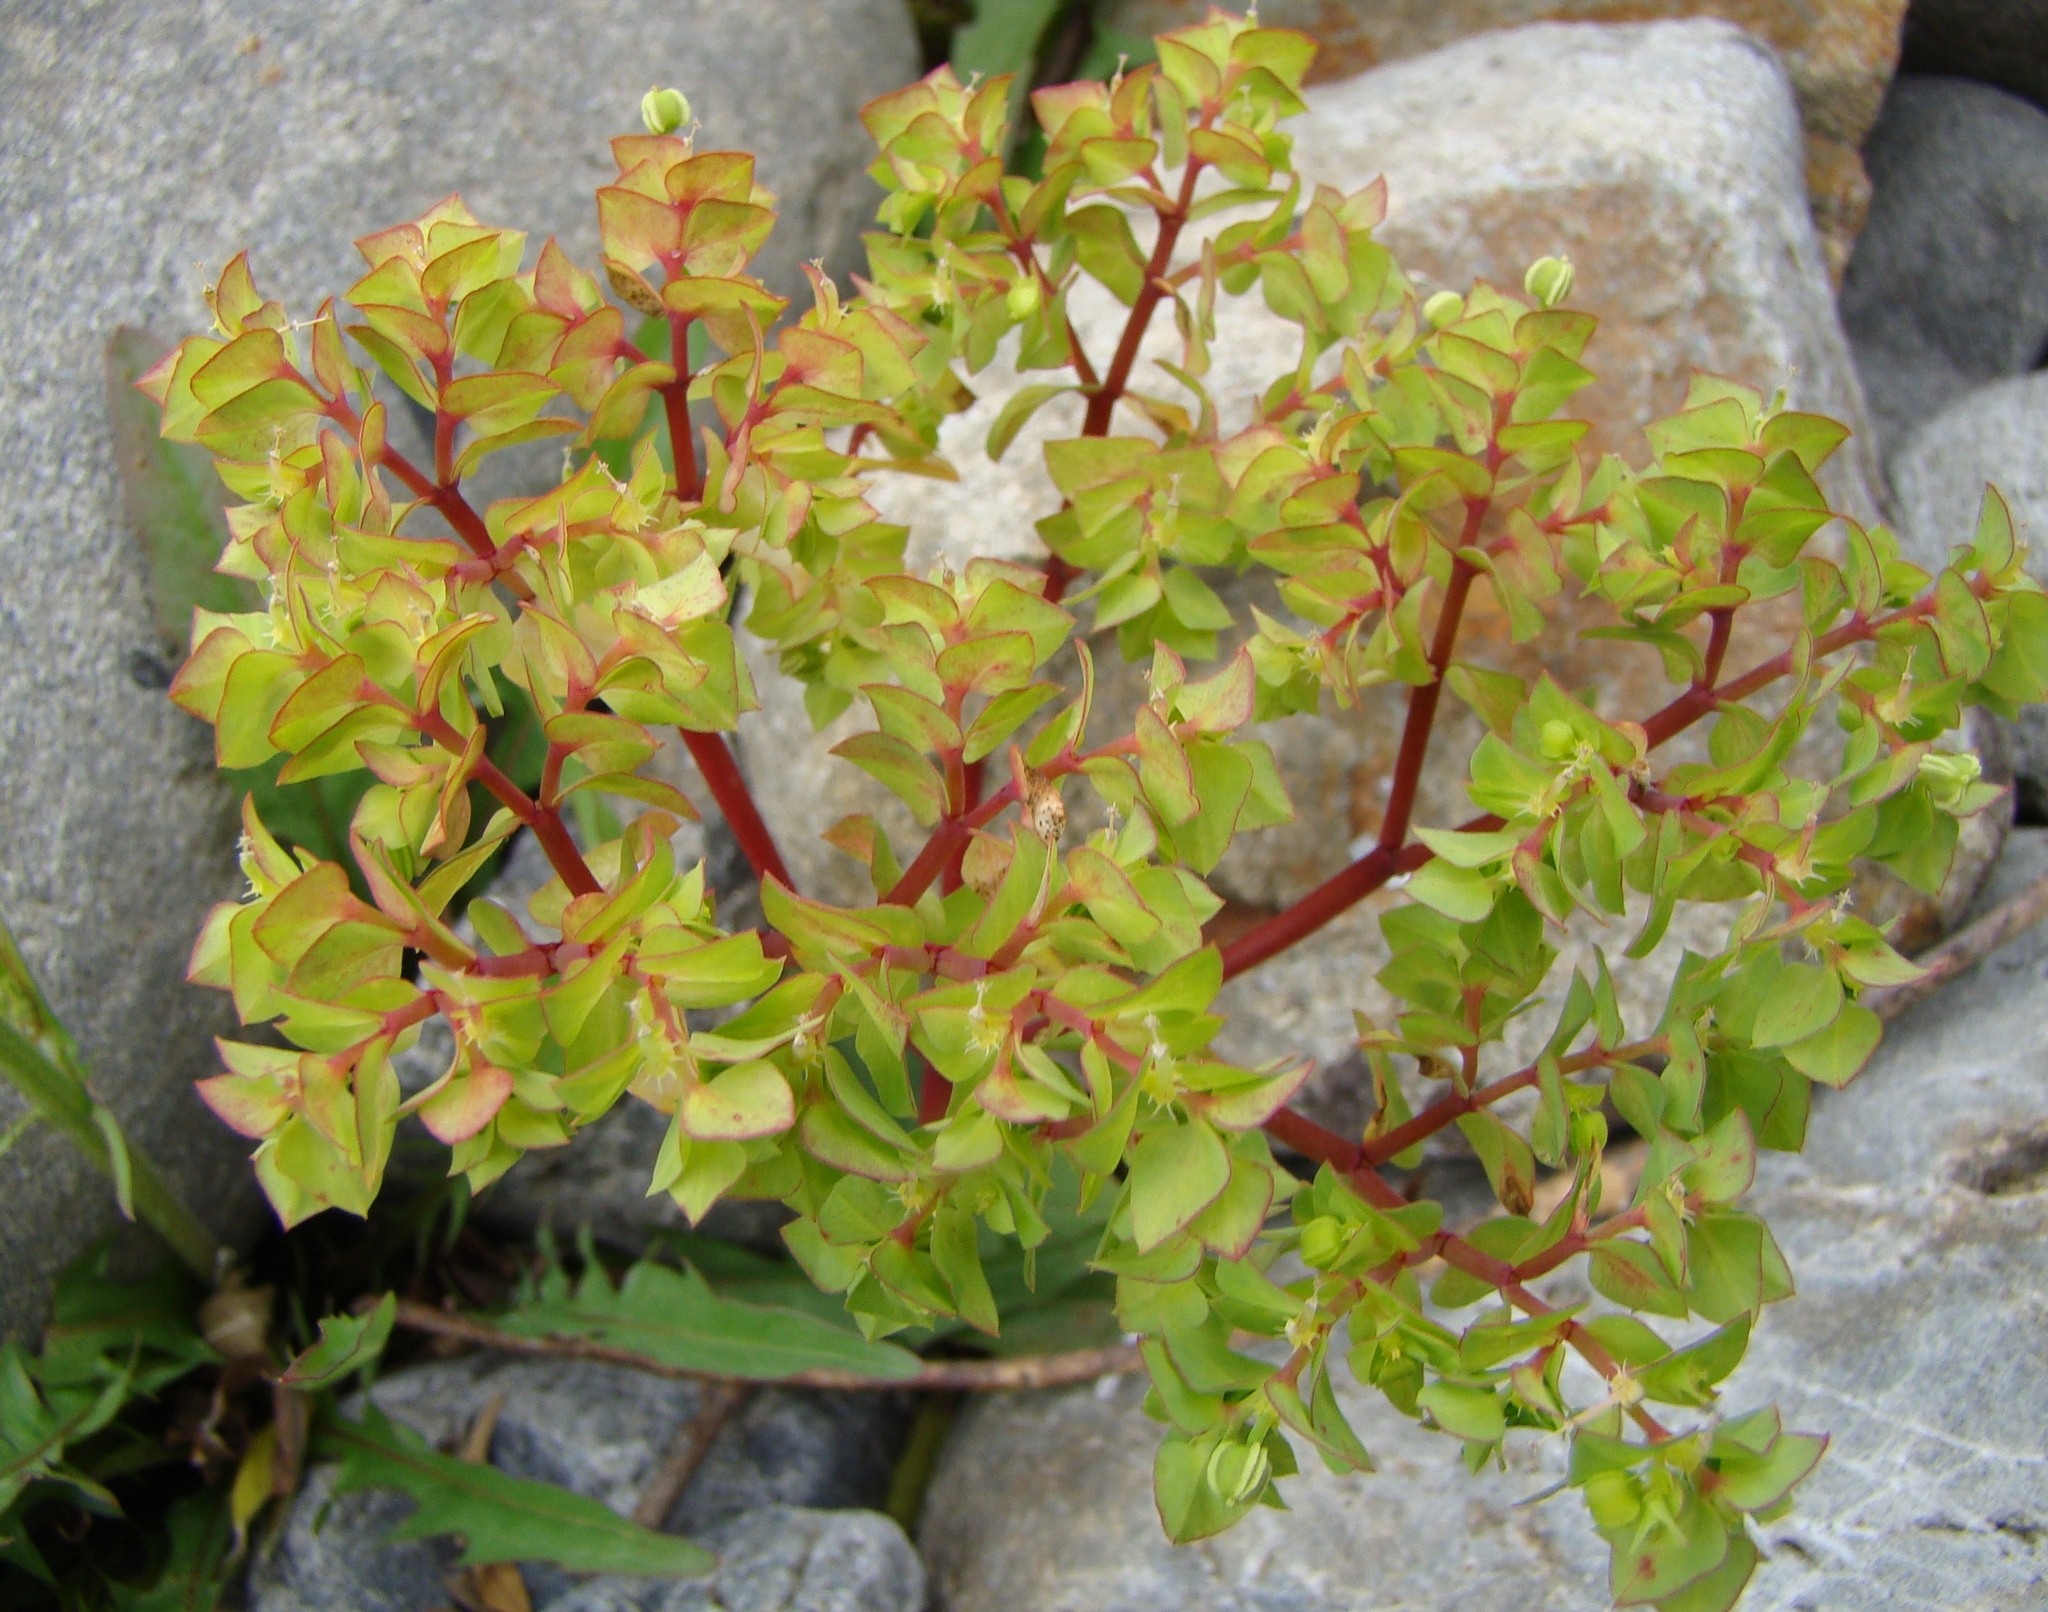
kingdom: Plantae
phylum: Tracheophyta
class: Magnoliopsida
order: Malpighiales
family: Euphorbiaceae
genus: Euphorbia
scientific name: Euphorbia peplus
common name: Petty spurge
